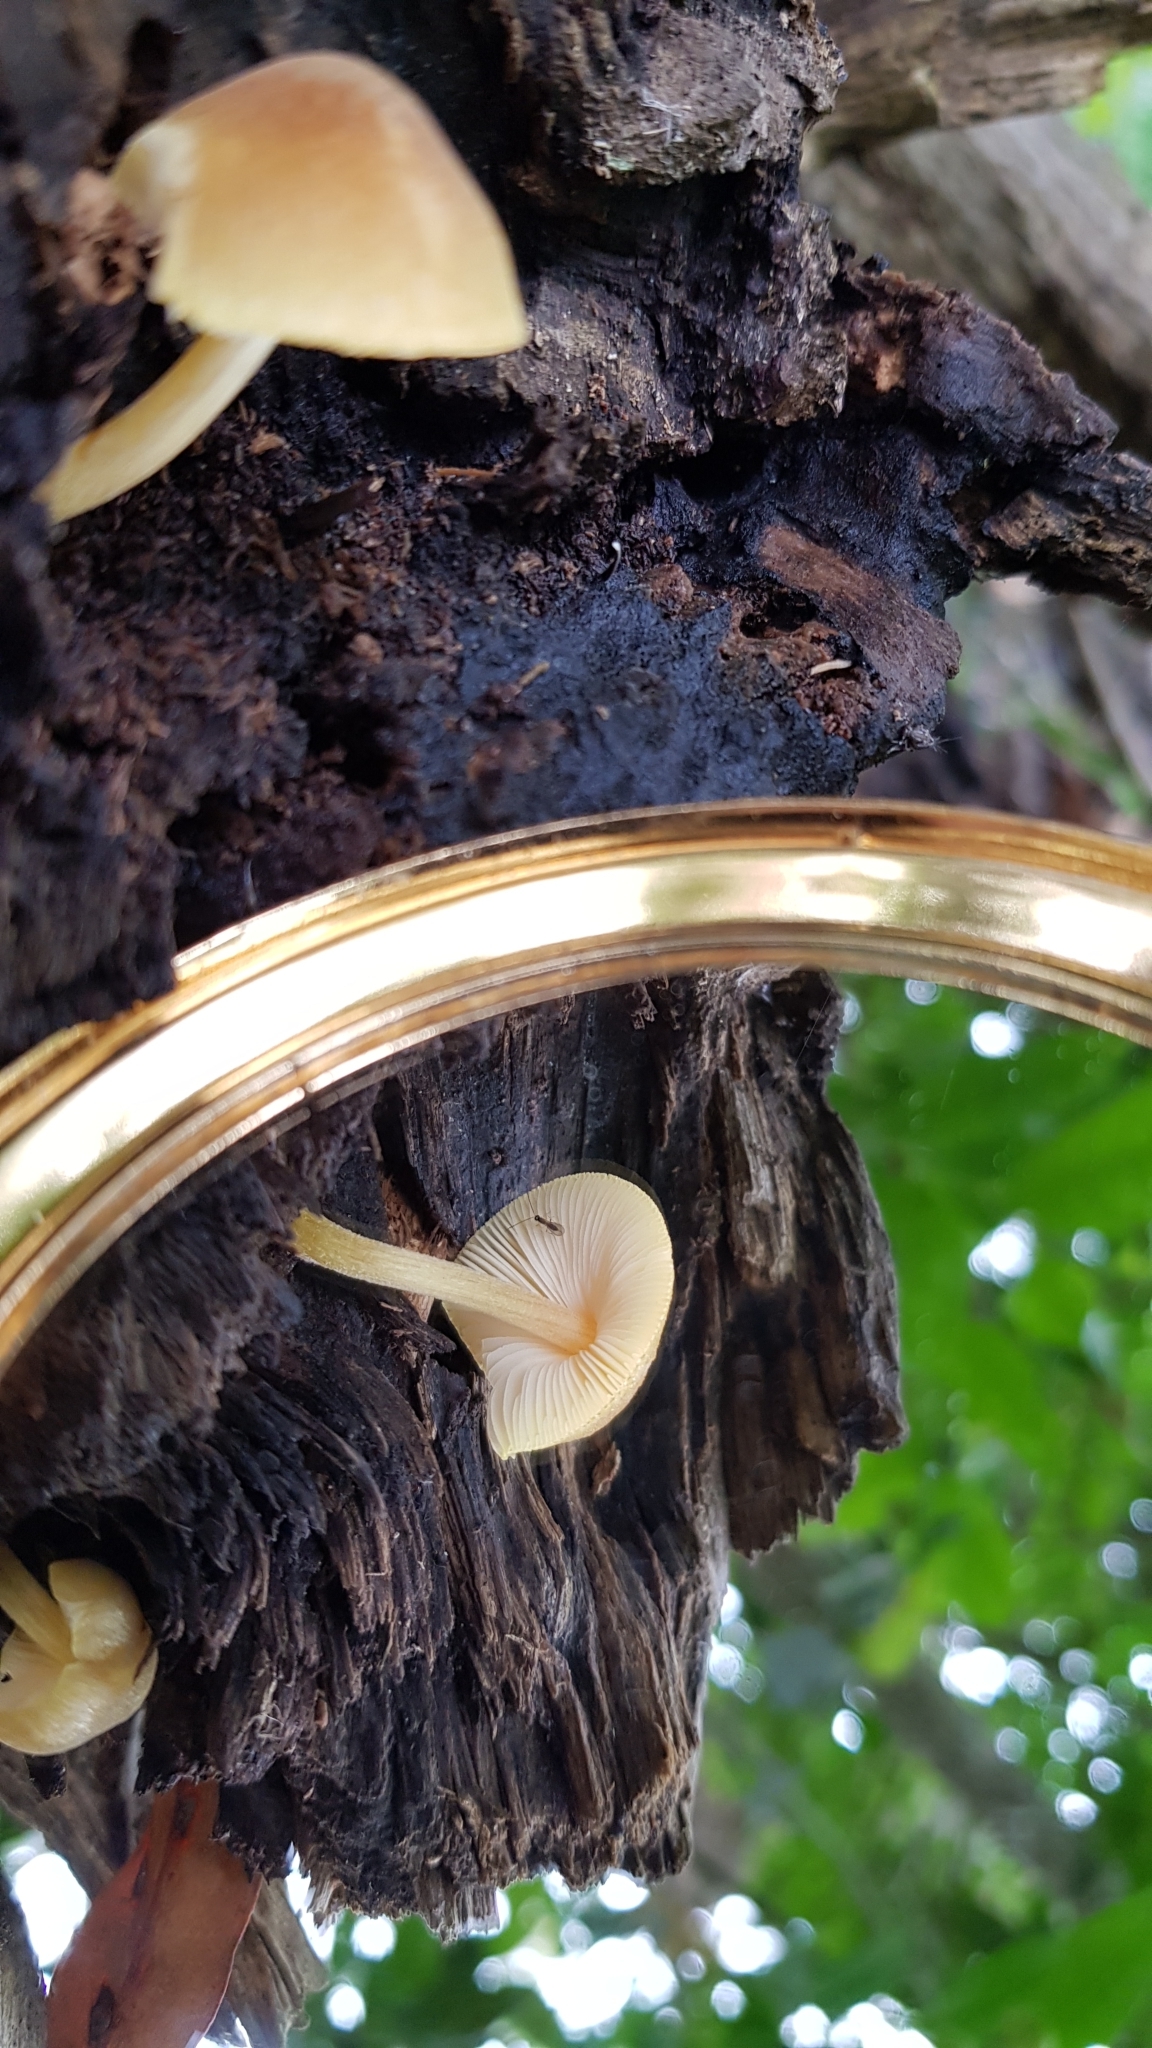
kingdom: Fungi
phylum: Basidiomycota
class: Agaricomycetes
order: Agaricales
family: Pluteaceae
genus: Pluteus
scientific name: Pluteus hubregtseorum
